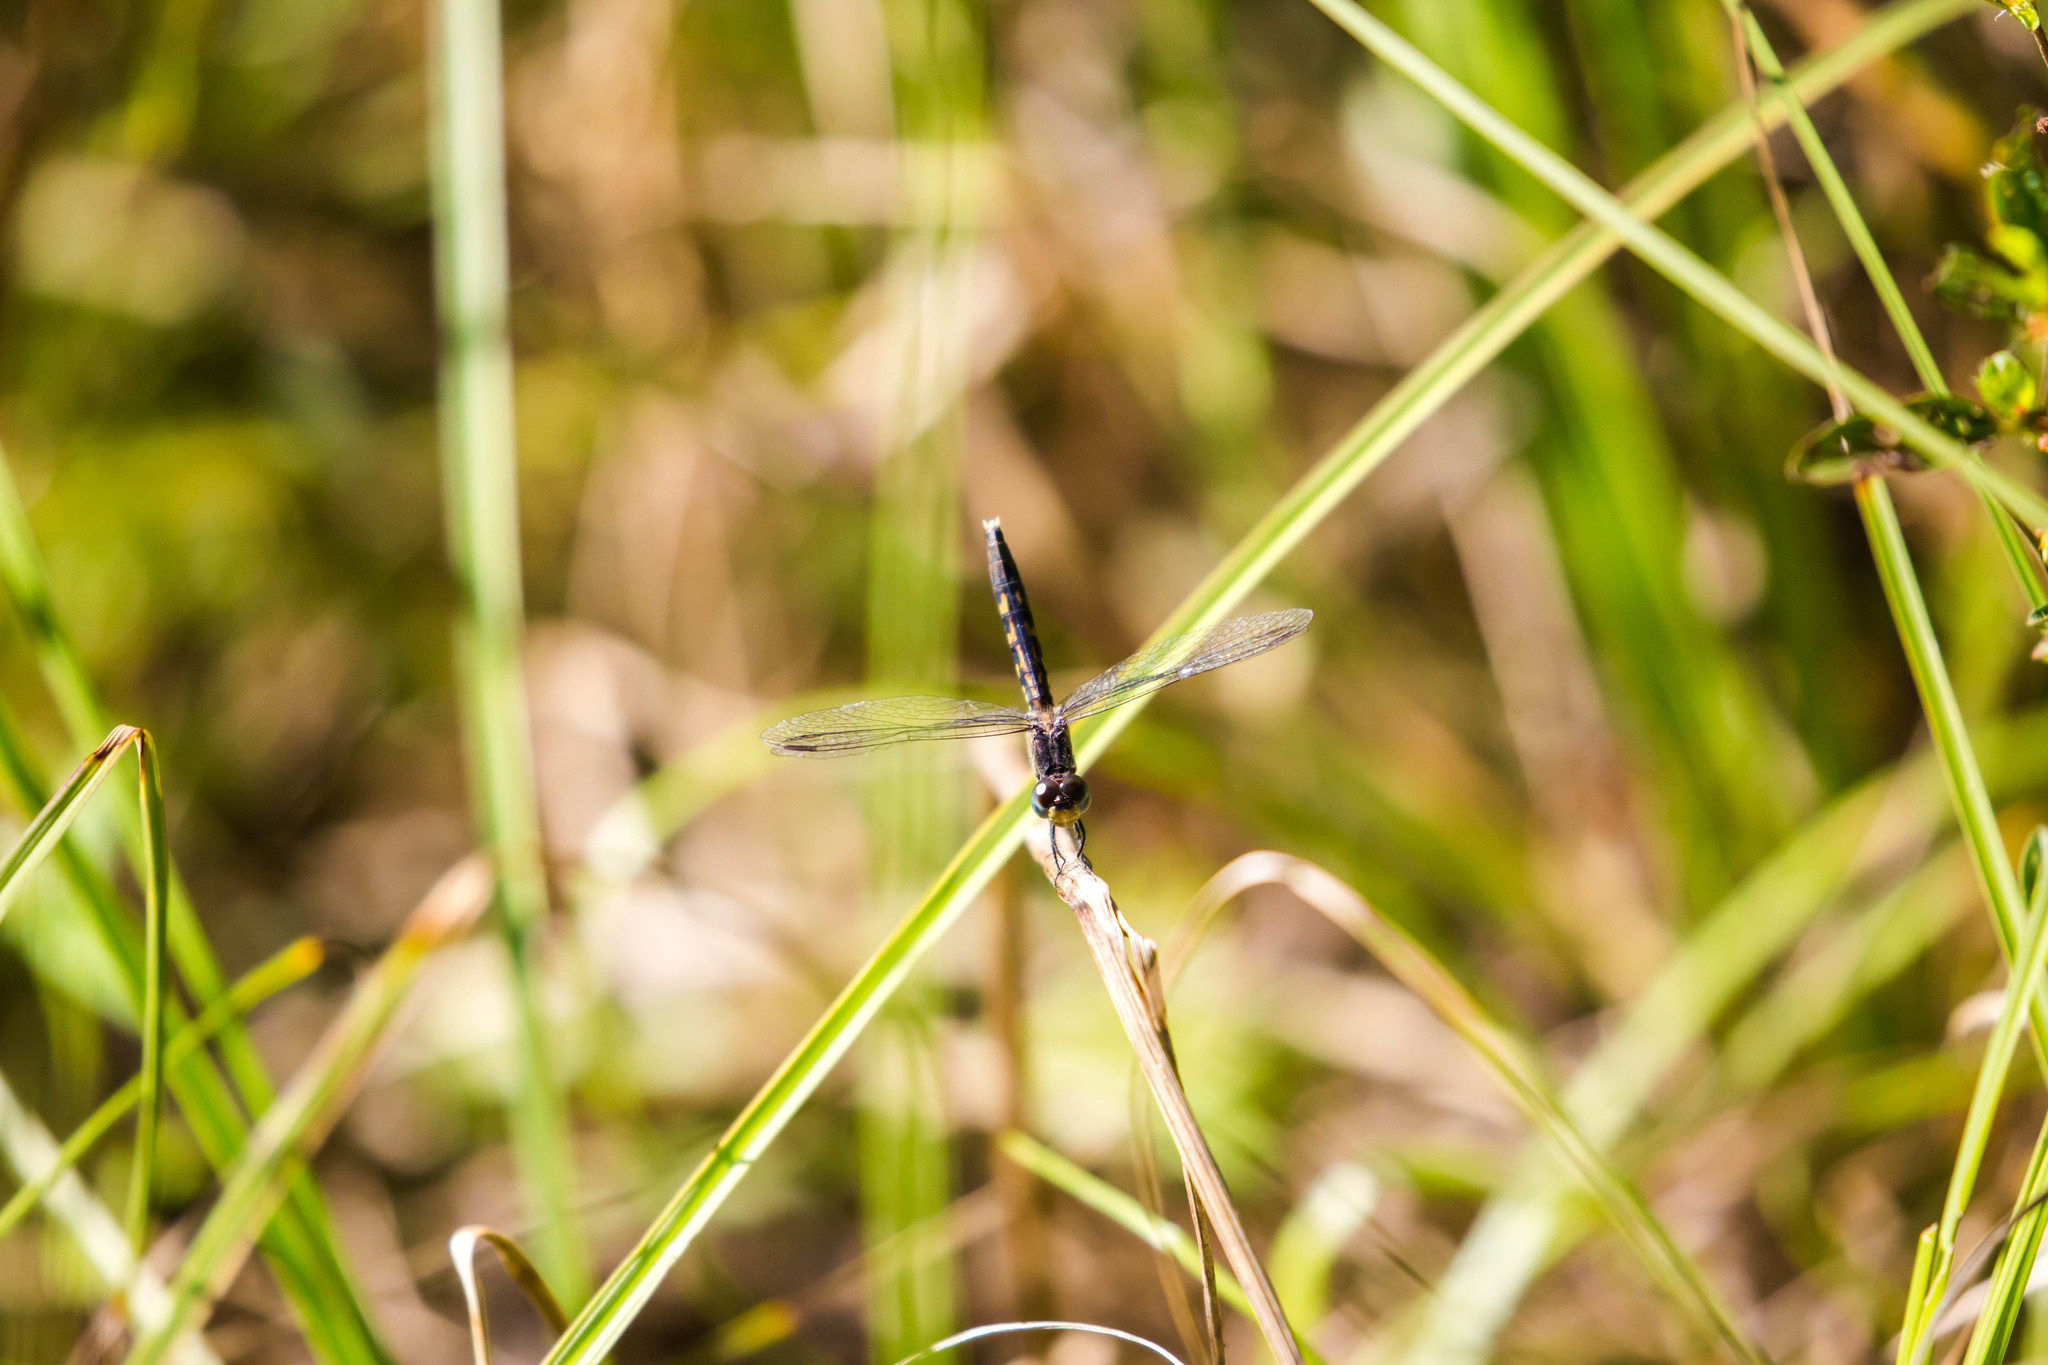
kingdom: Animalia
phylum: Arthropoda
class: Insecta
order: Odonata
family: Libellulidae
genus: Erythrodiplax
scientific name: Erythrodiplax minuscula
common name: Little blue dragonlet
